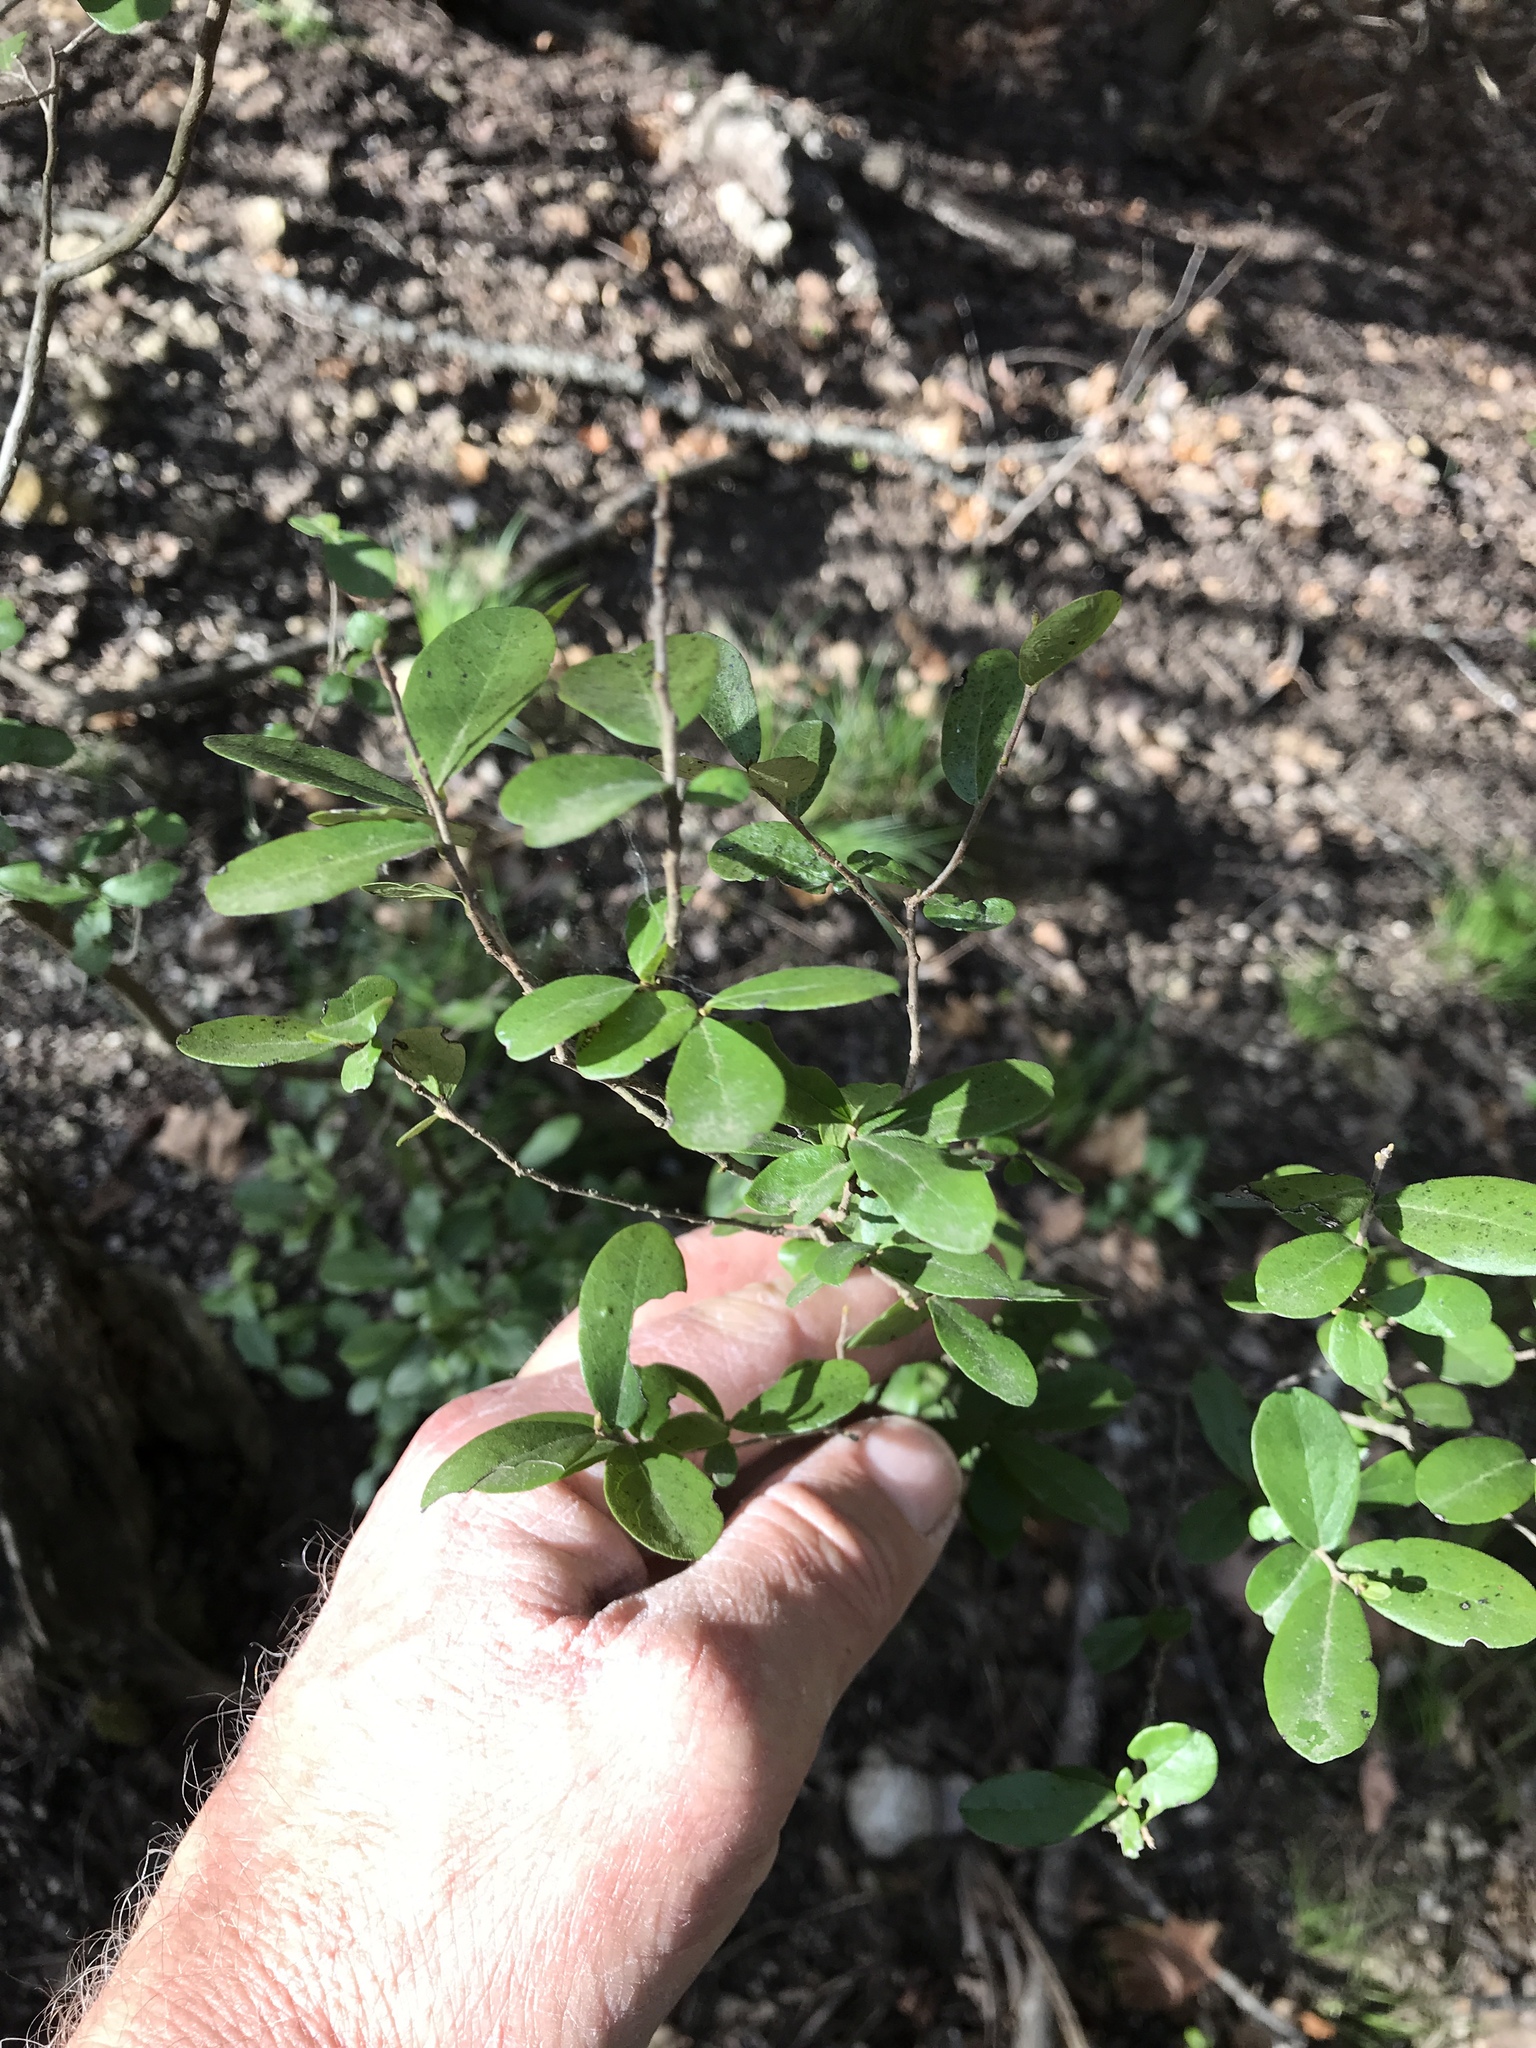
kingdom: Plantae
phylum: Tracheophyta
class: Magnoliopsida
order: Ericales
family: Ebenaceae
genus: Diospyros
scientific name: Diospyros texana
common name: Texas persimmon
